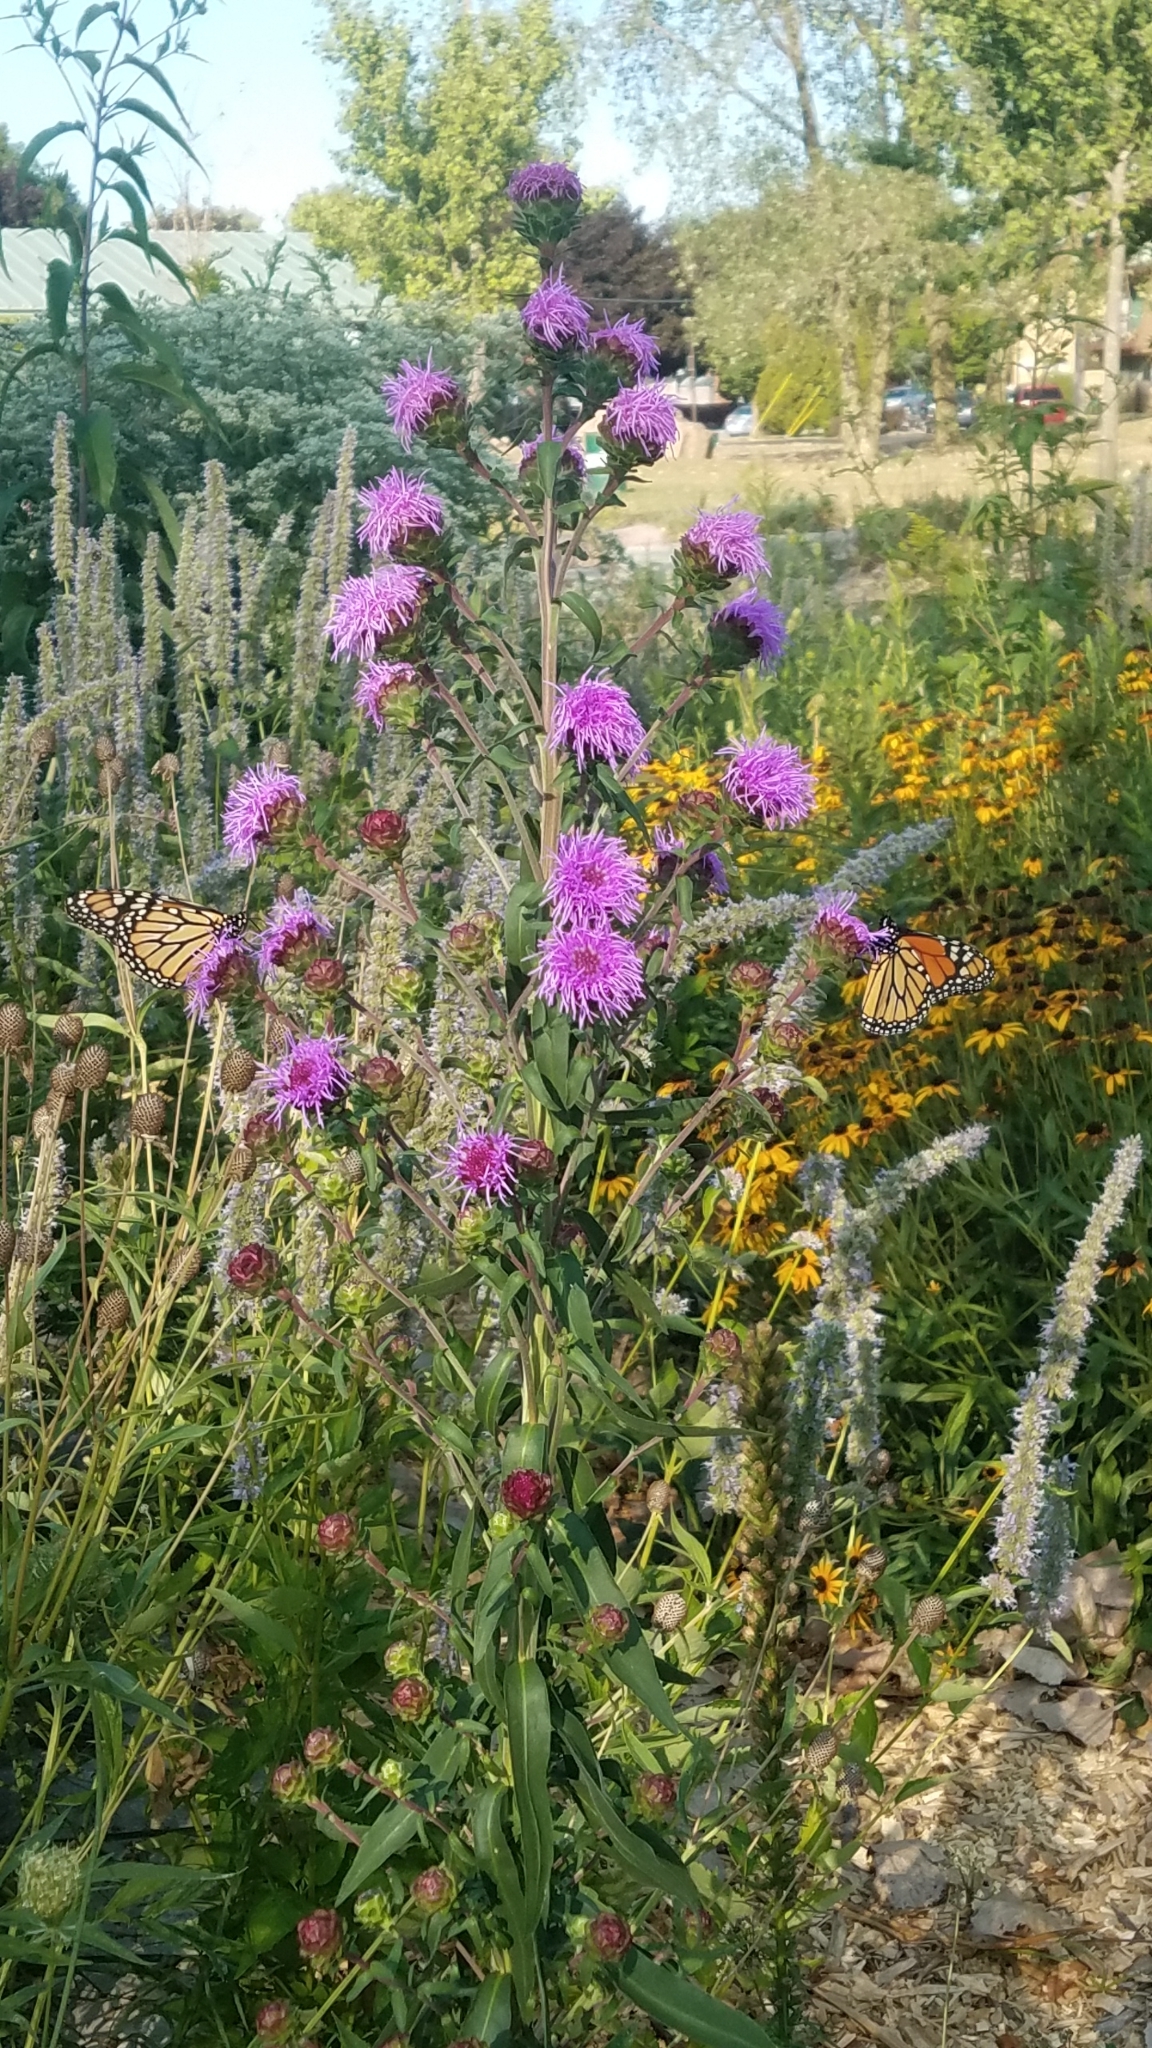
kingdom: Animalia
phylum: Arthropoda
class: Insecta
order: Lepidoptera
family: Nymphalidae
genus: Danaus
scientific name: Danaus plexippus
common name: Monarch
